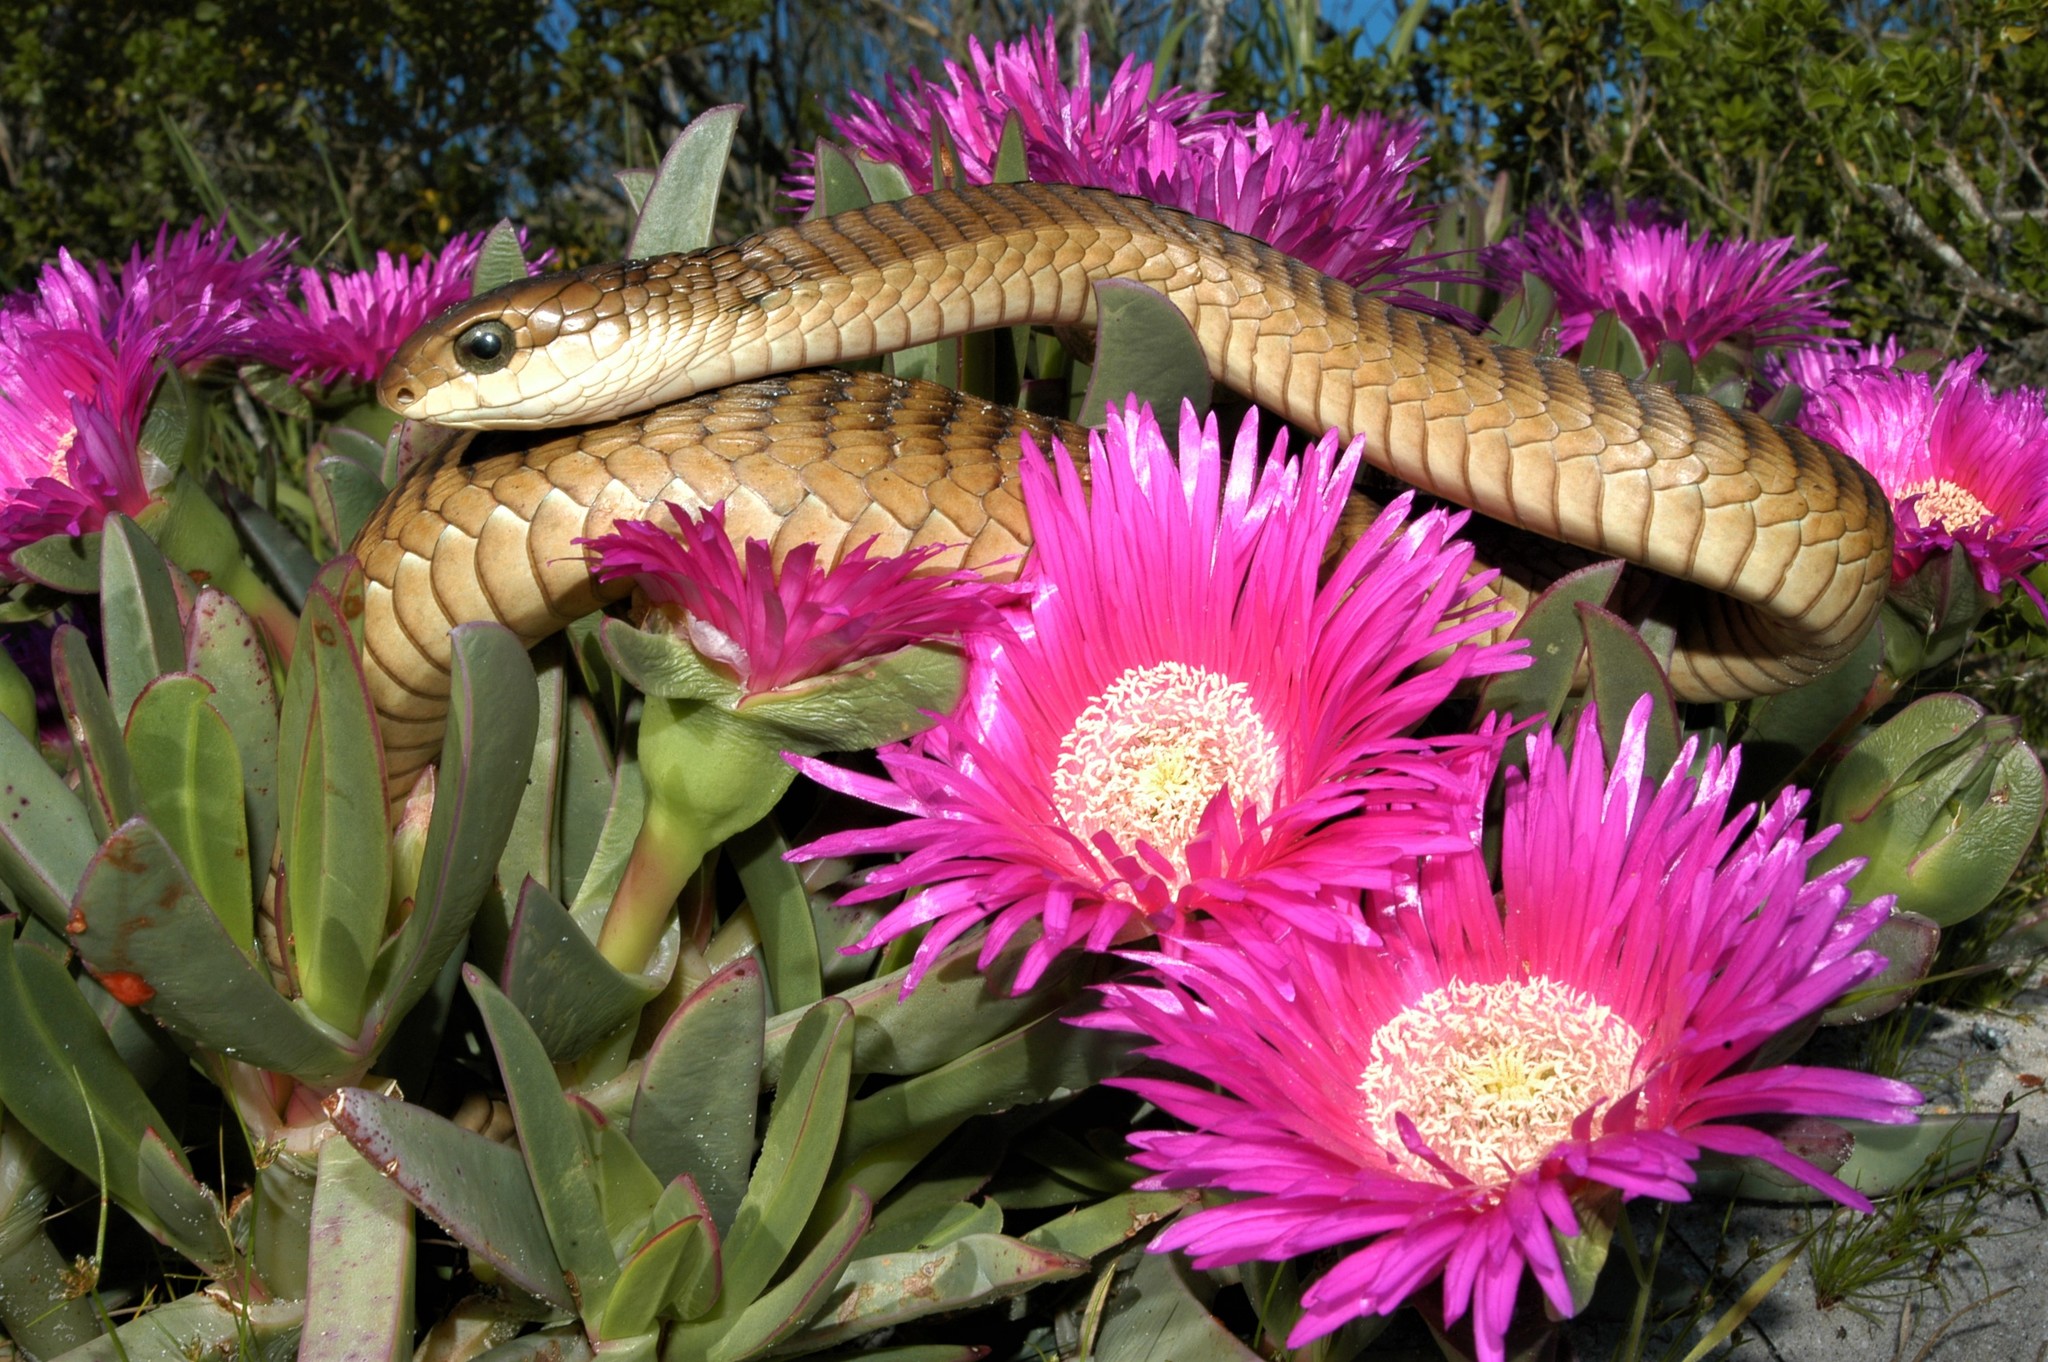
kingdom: Animalia
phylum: Chordata
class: Squamata
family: Colubridae
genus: Dispholidus
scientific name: Dispholidus typus
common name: Boomslang
